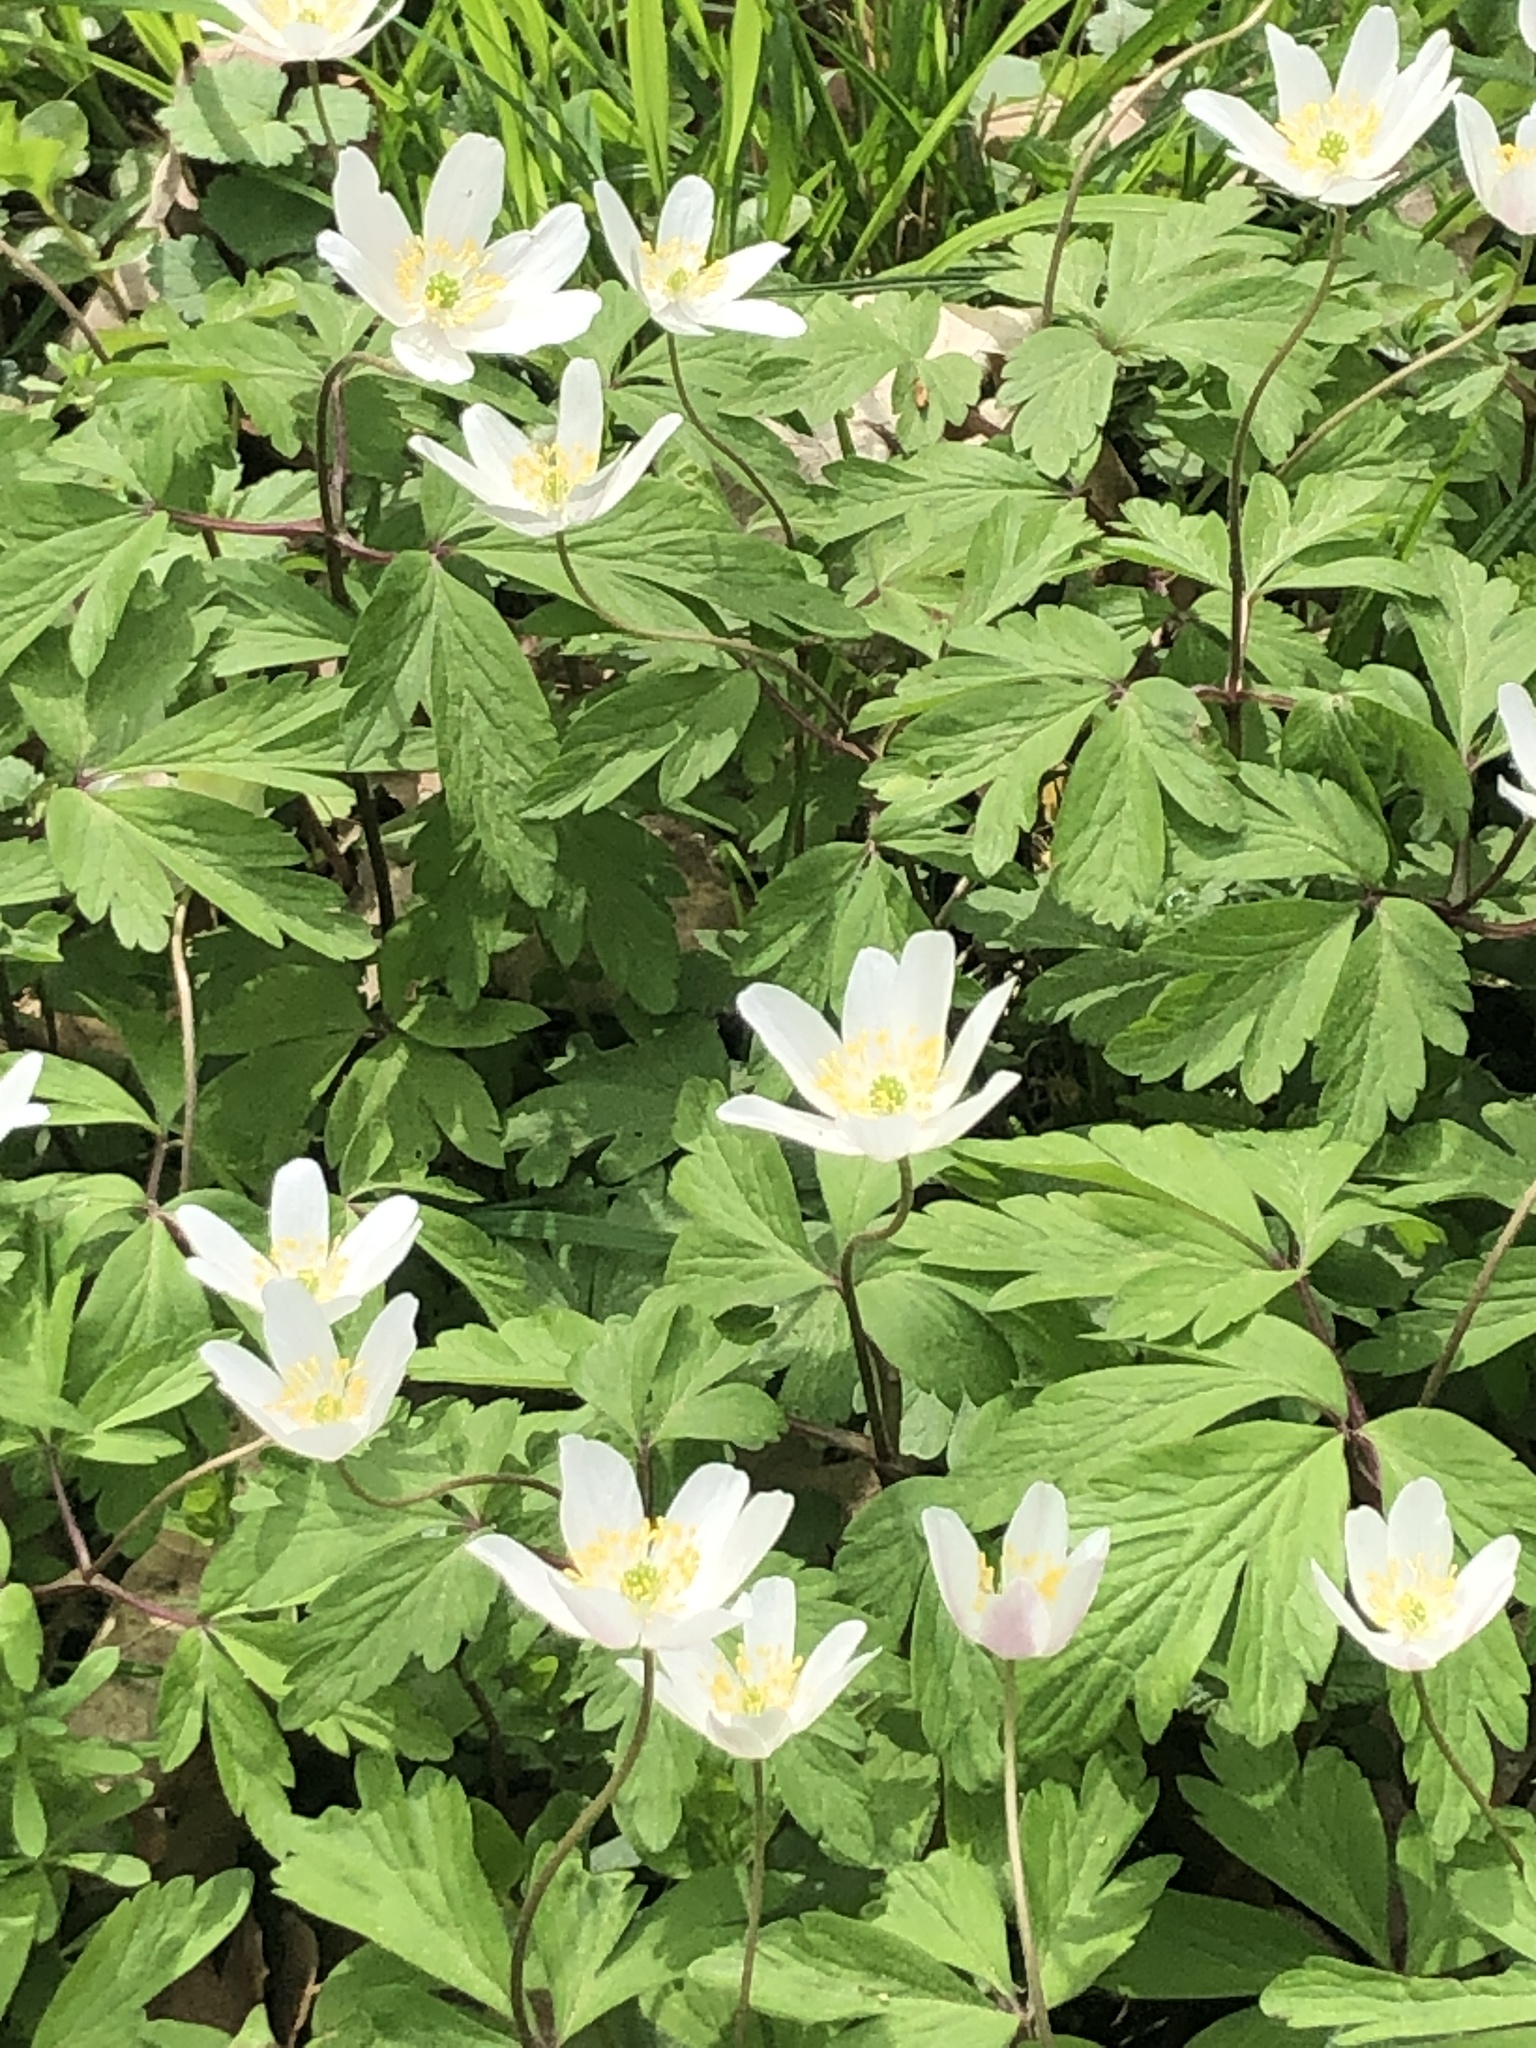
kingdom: Plantae
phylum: Tracheophyta
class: Magnoliopsida
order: Ranunculales
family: Ranunculaceae
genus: Anemone
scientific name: Anemone nemorosa
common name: Wood anemone
